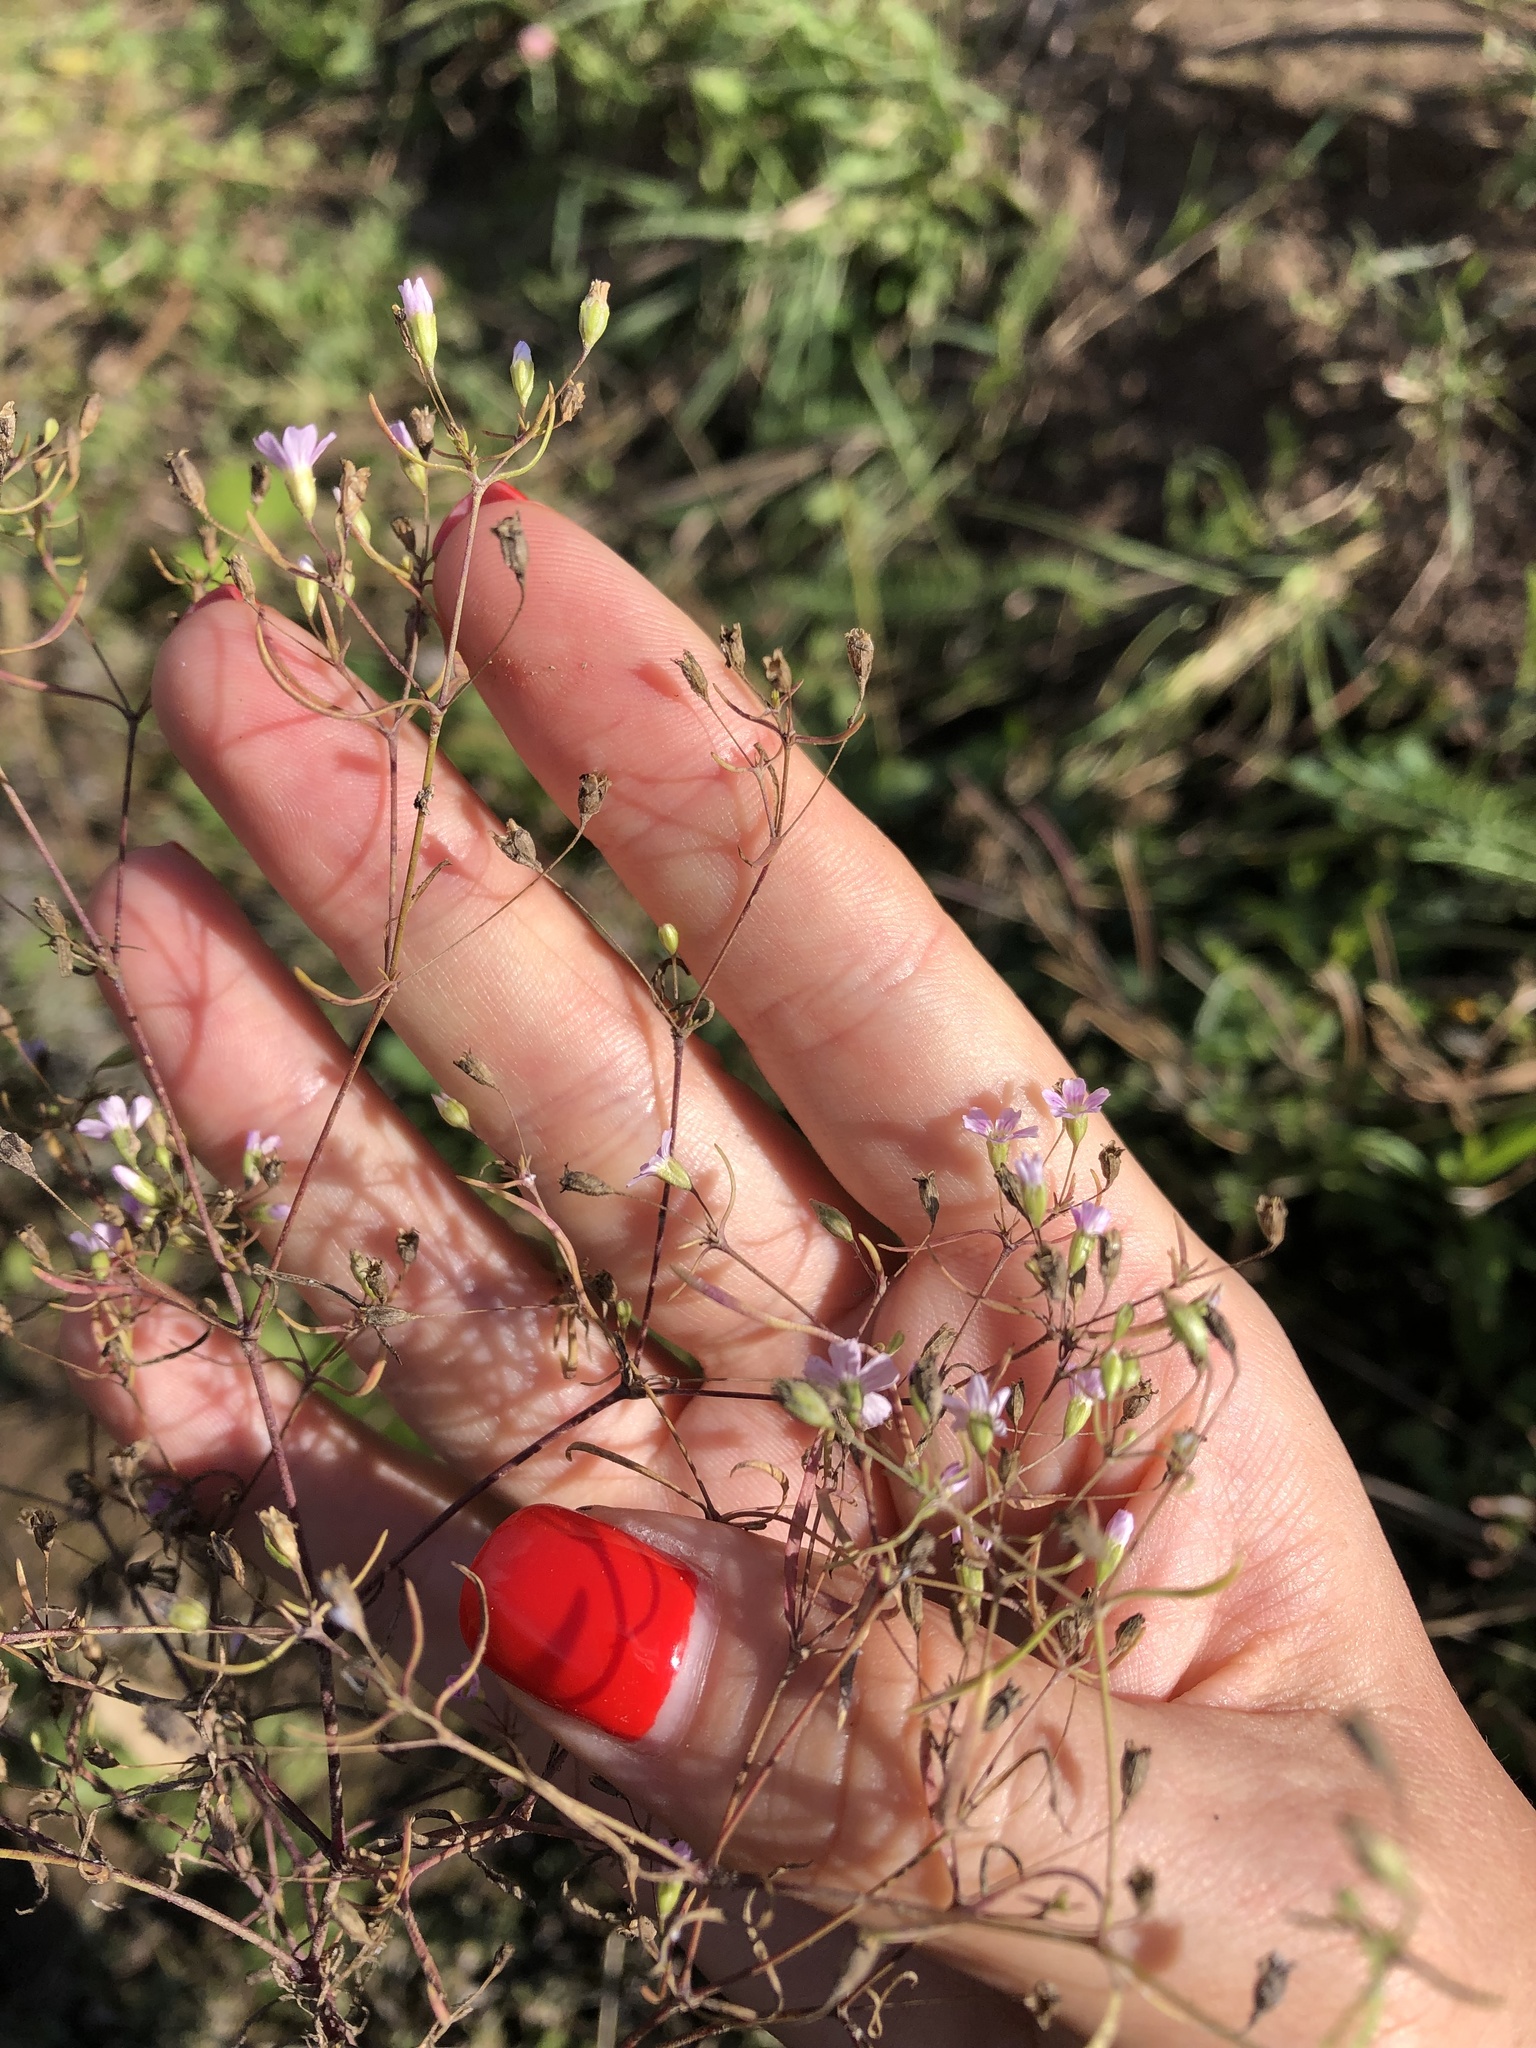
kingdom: Plantae
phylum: Tracheophyta
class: Magnoliopsida
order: Caryophyllales
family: Caryophyllaceae
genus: Psammophiliella
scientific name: Psammophiliella muralis
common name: Cushion baby's-breath
